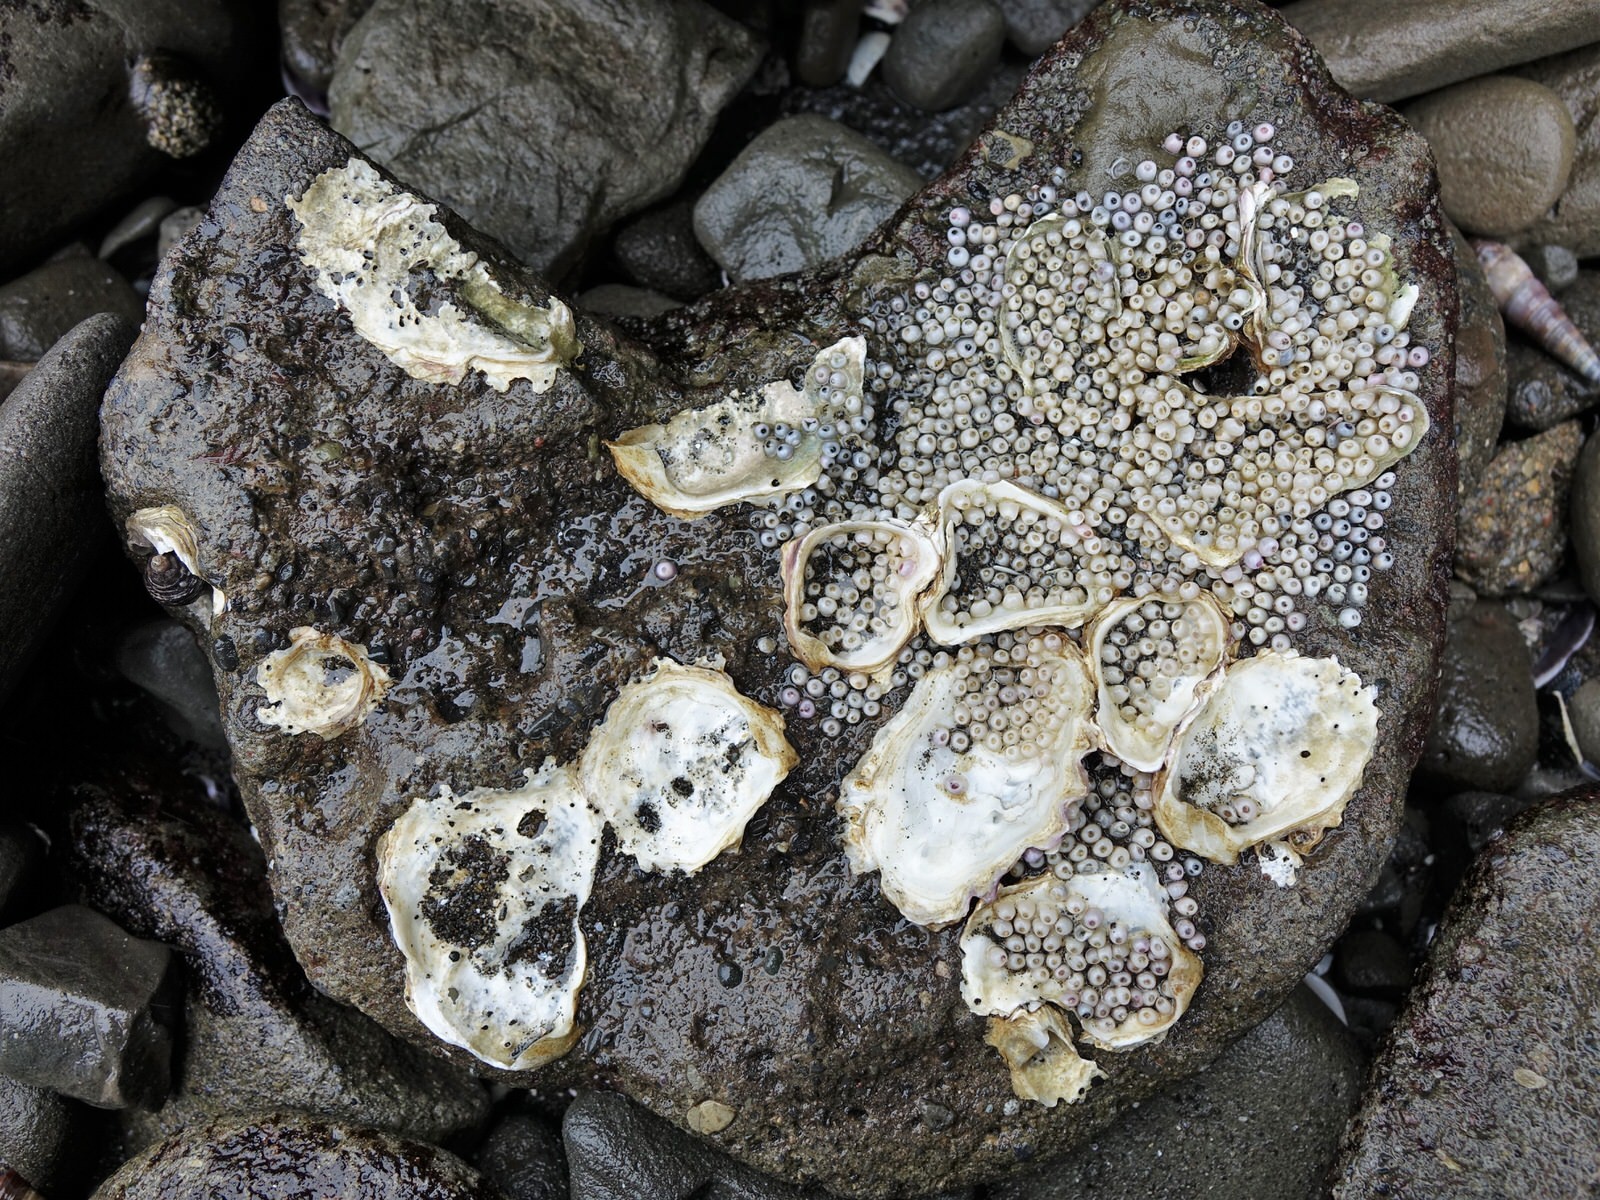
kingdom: Animalia
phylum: Mollusca
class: Gastropoda
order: Neogastropoda
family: Muricidae
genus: Haustrum
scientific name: Haustrum albomarginatum
